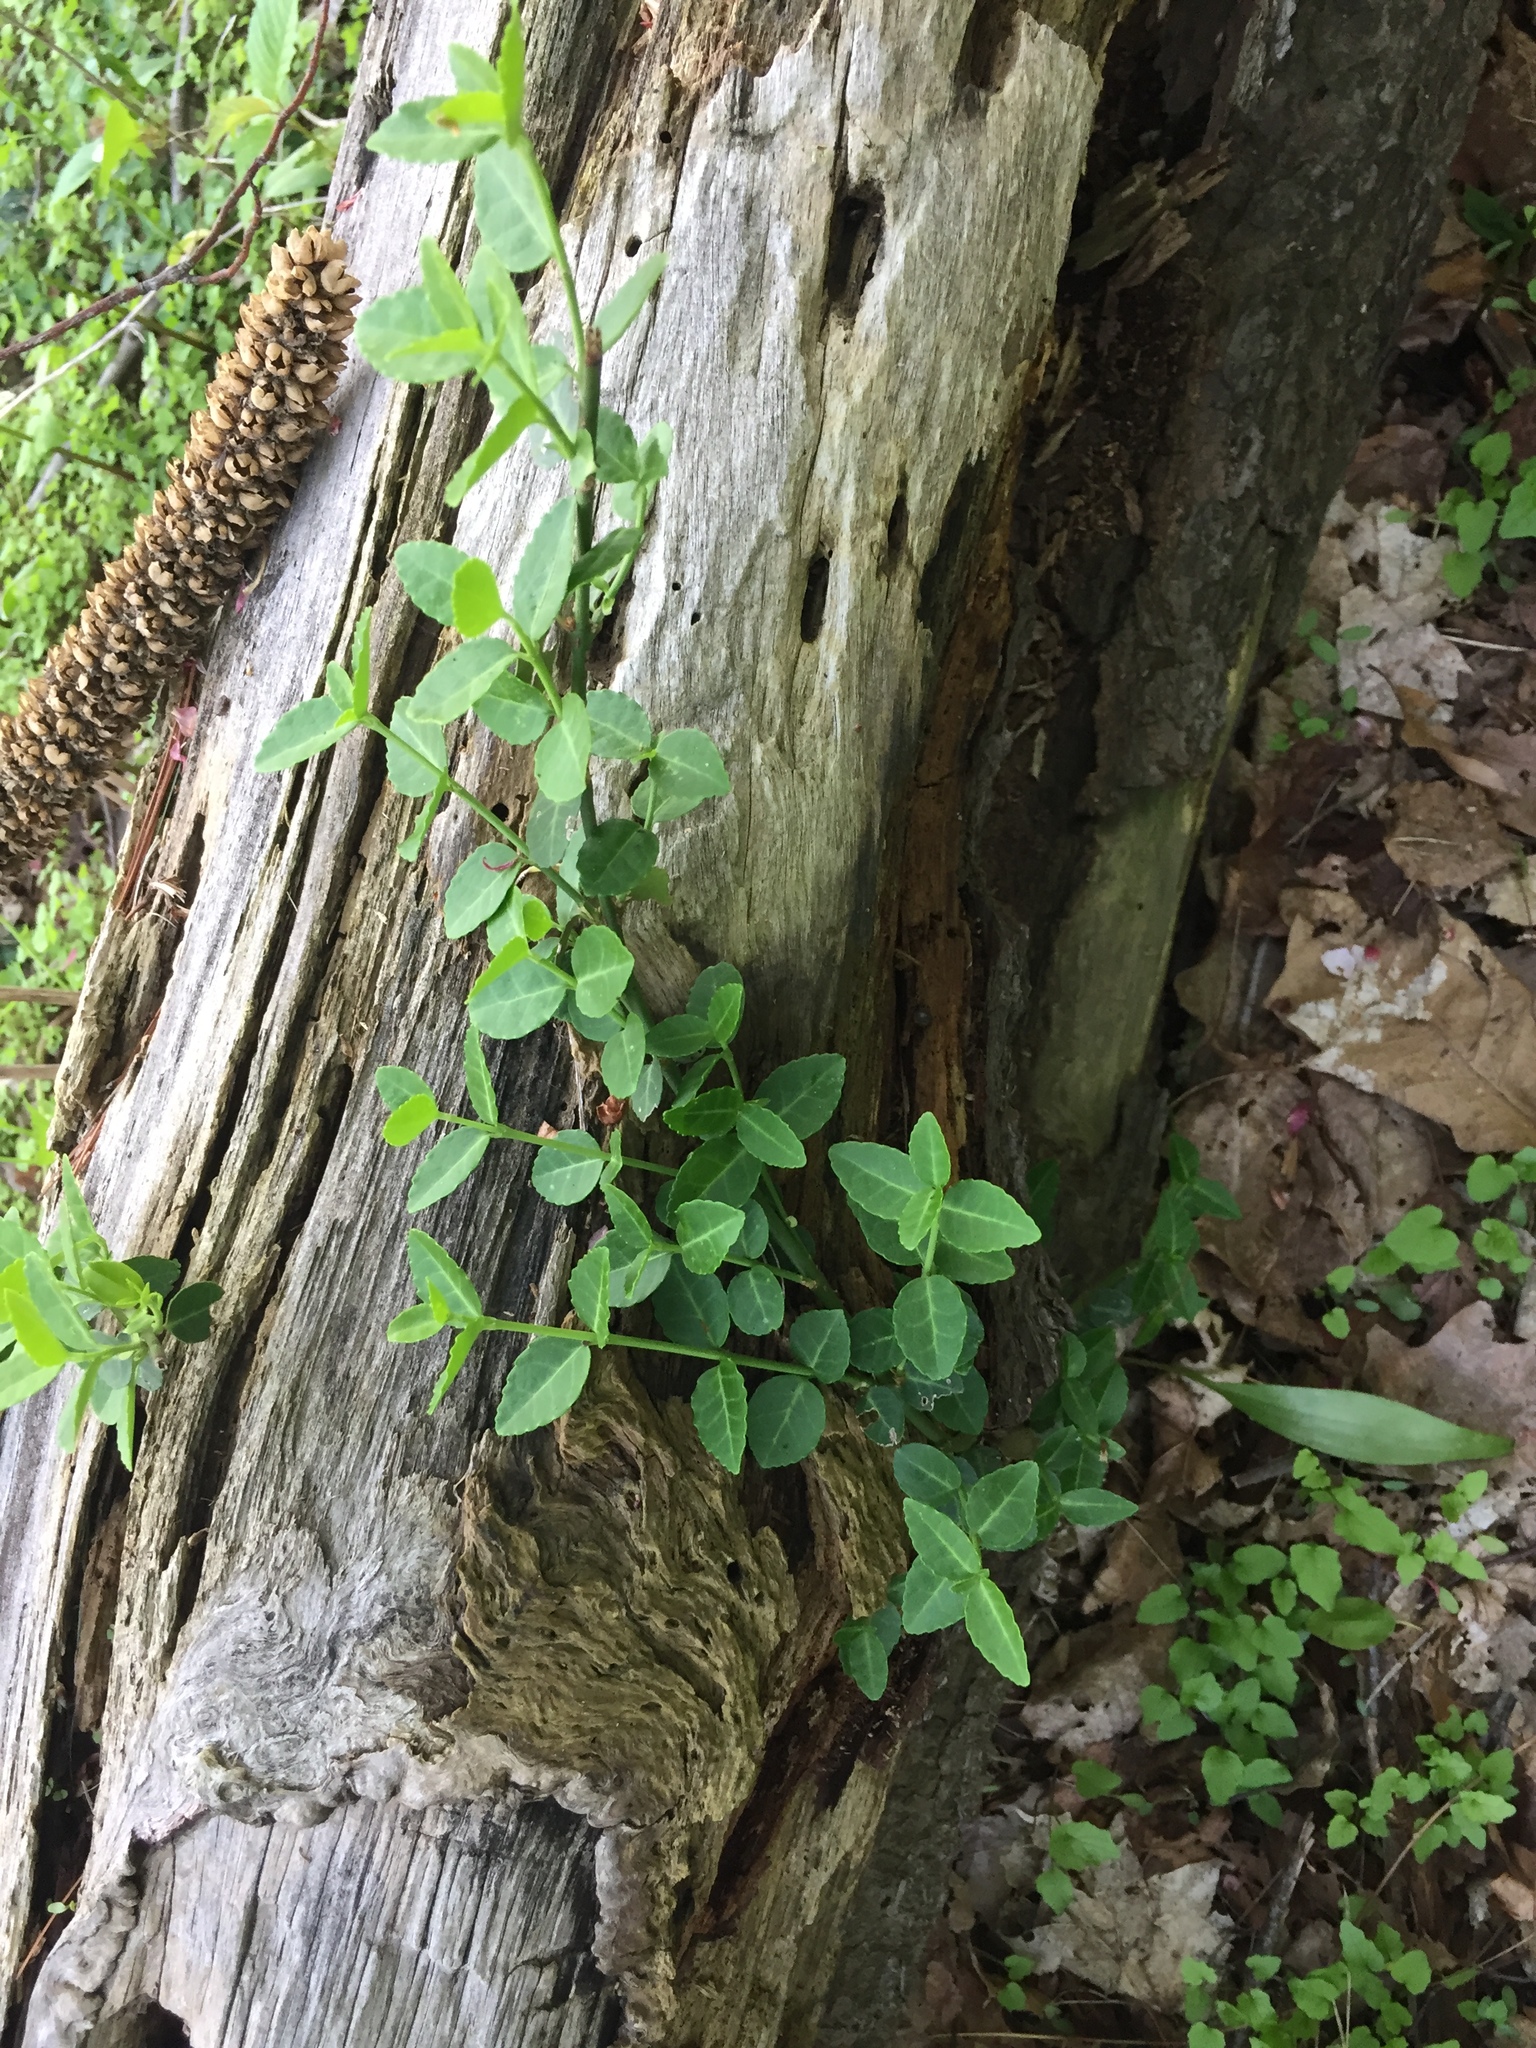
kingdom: Plantae
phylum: Tracheophyta
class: Magnoliopsida
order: Celastrales
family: Celastraceae
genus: Euonymus
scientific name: Euonymus fortunei
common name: Climbing euonymus
